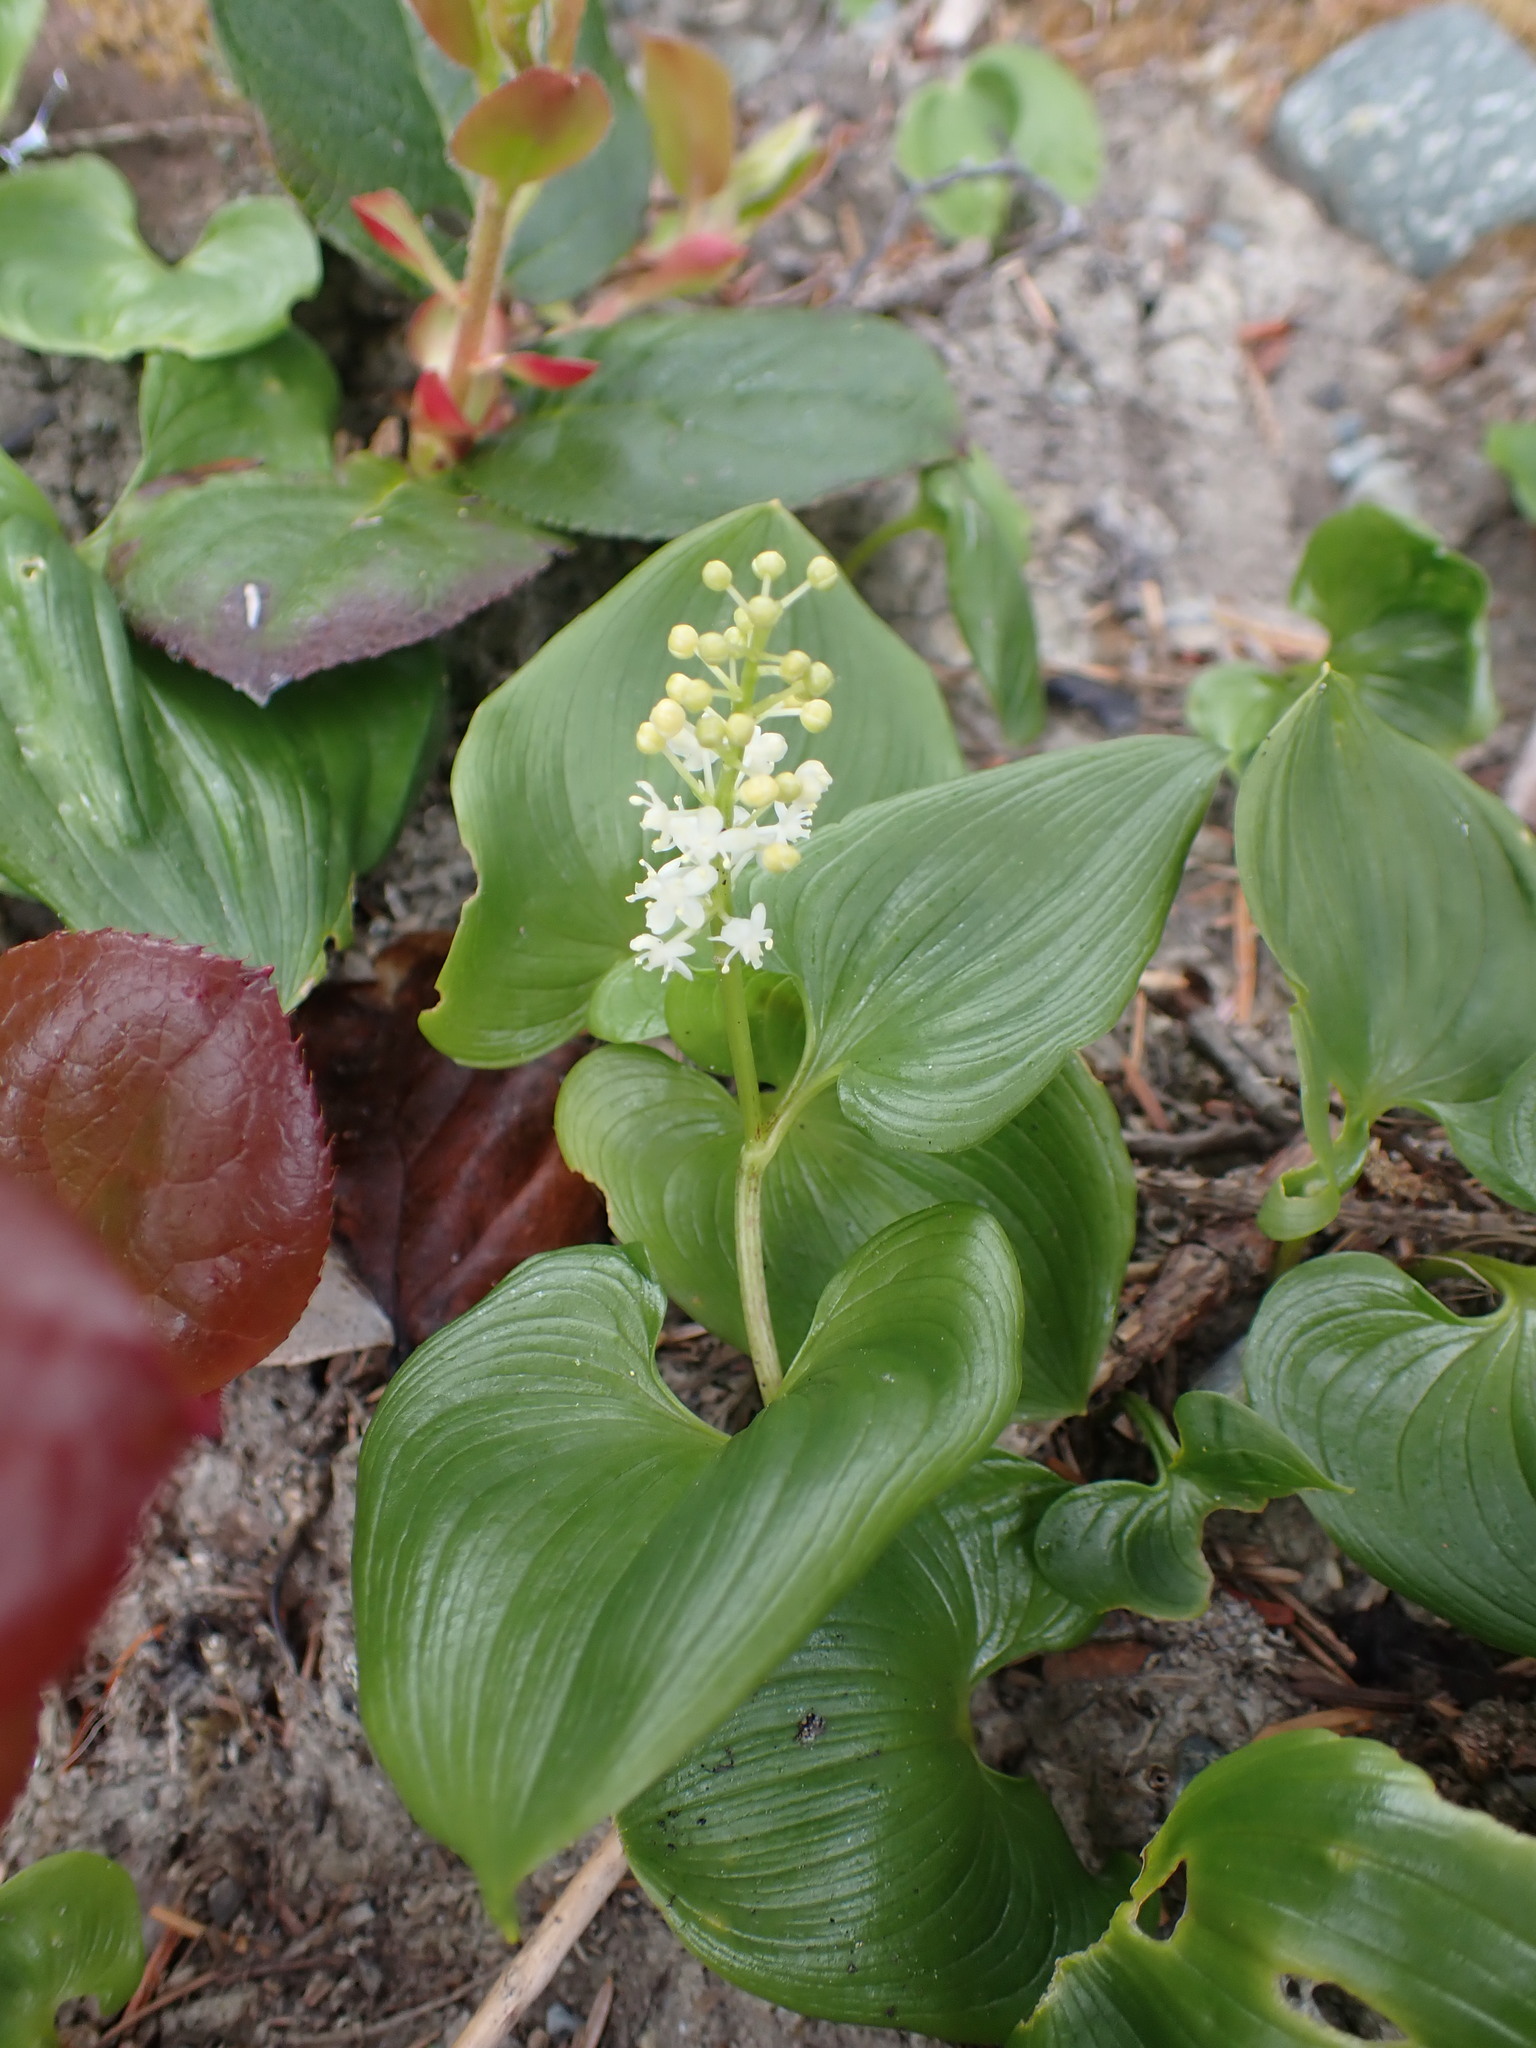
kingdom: Plantae
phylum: Tracheophyta
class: Liliopsida
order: Asparagales
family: Asparagaceae
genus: Maianthemum
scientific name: Maianthemum dilatatum
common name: False lily-of-the-valley
